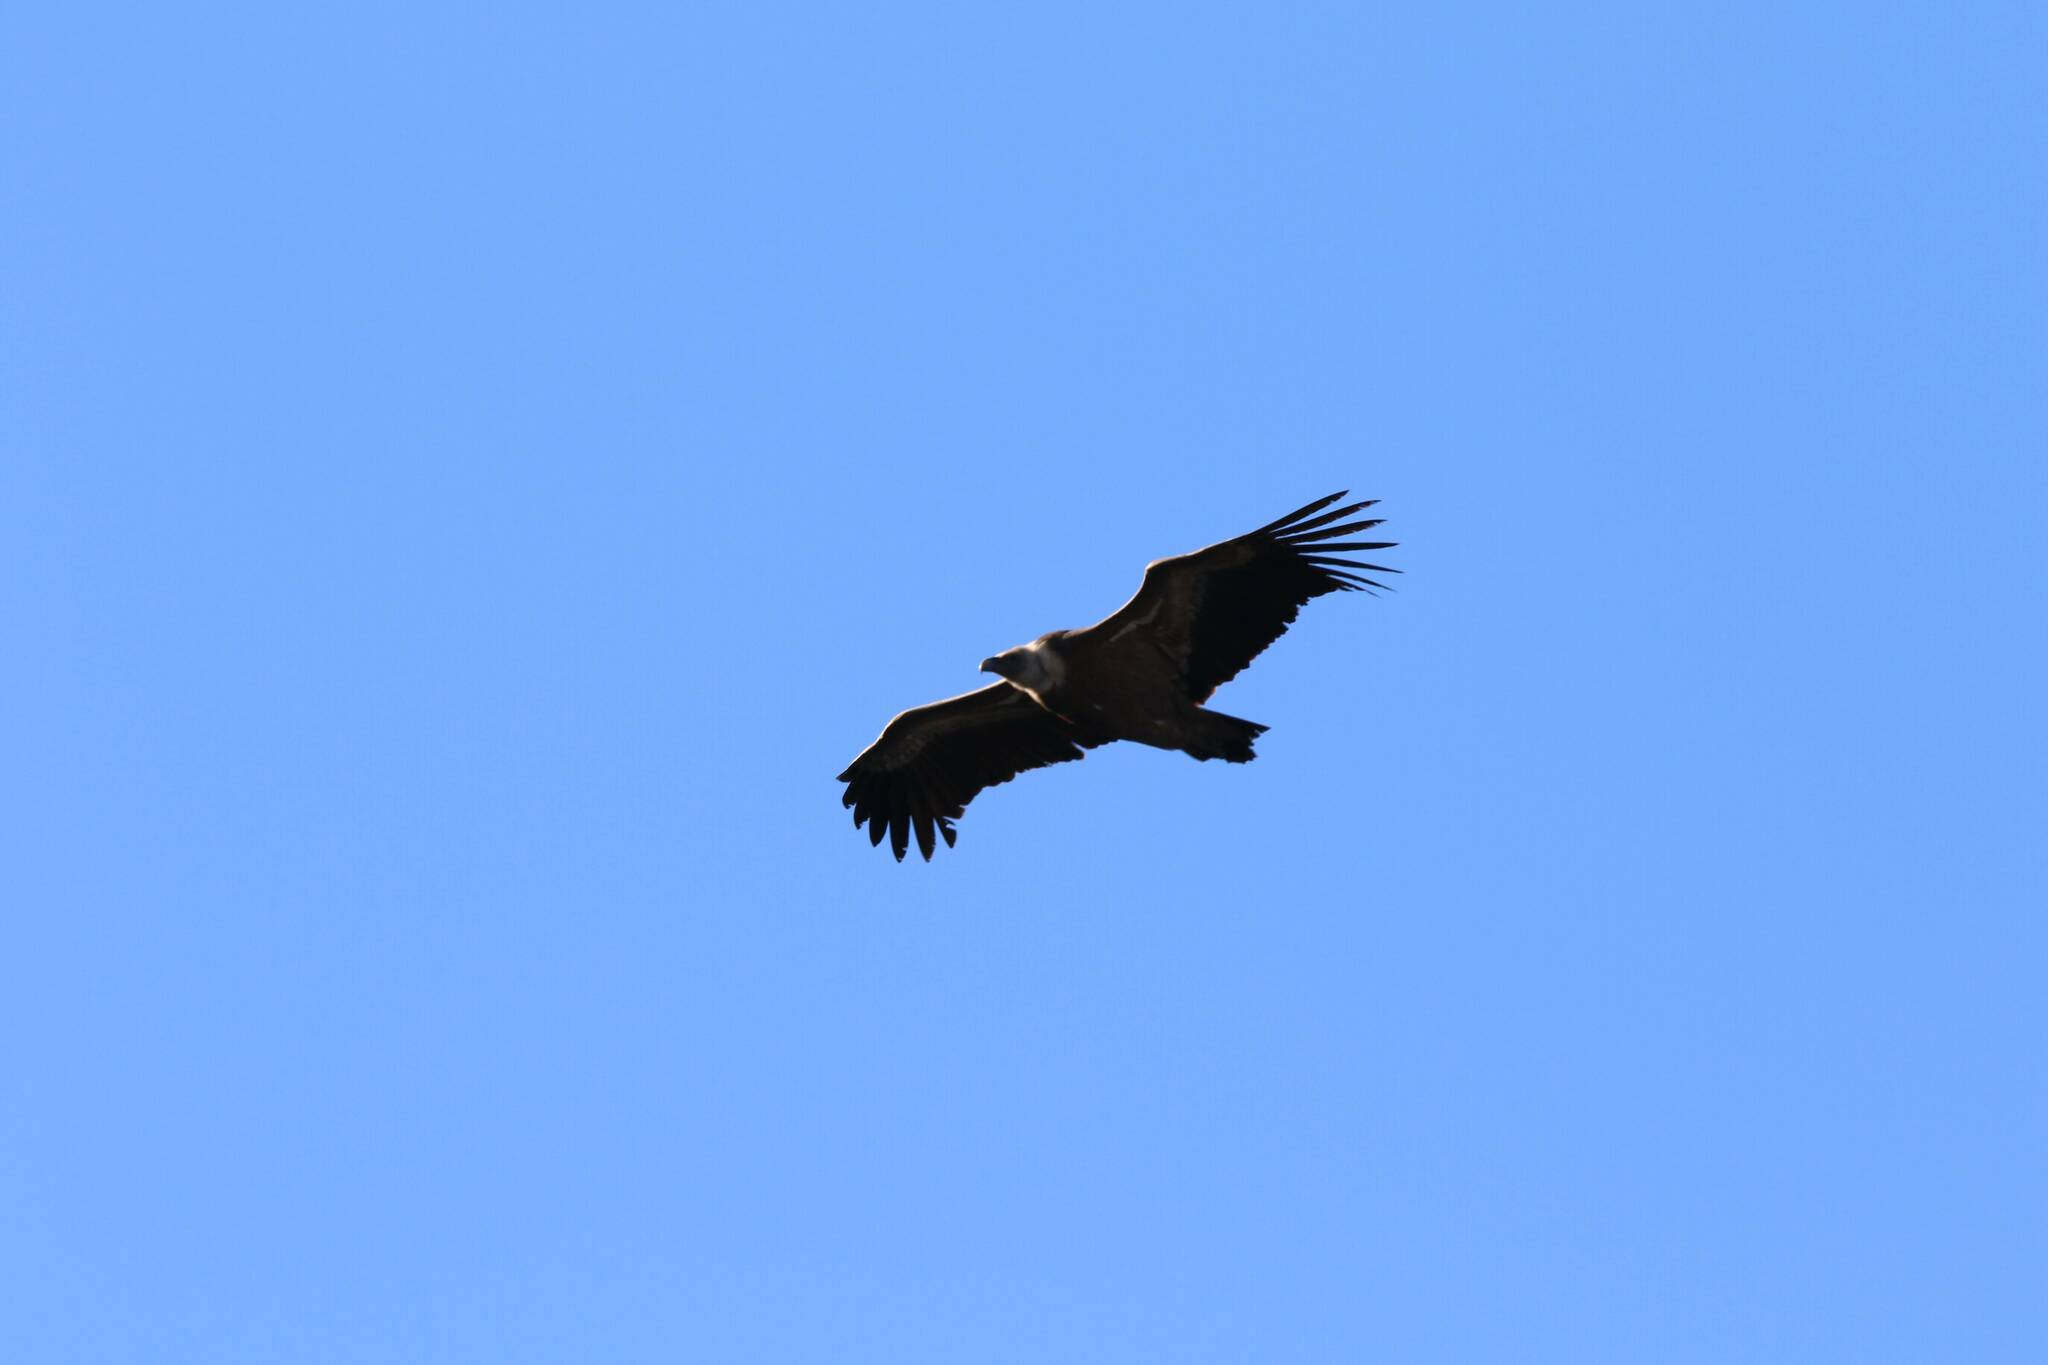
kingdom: Animalia
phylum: Chordata
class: Aves
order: Accipitriformes
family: Accipitridae
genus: Gyps
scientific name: Gyps fulvus
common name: Griffon vulture
